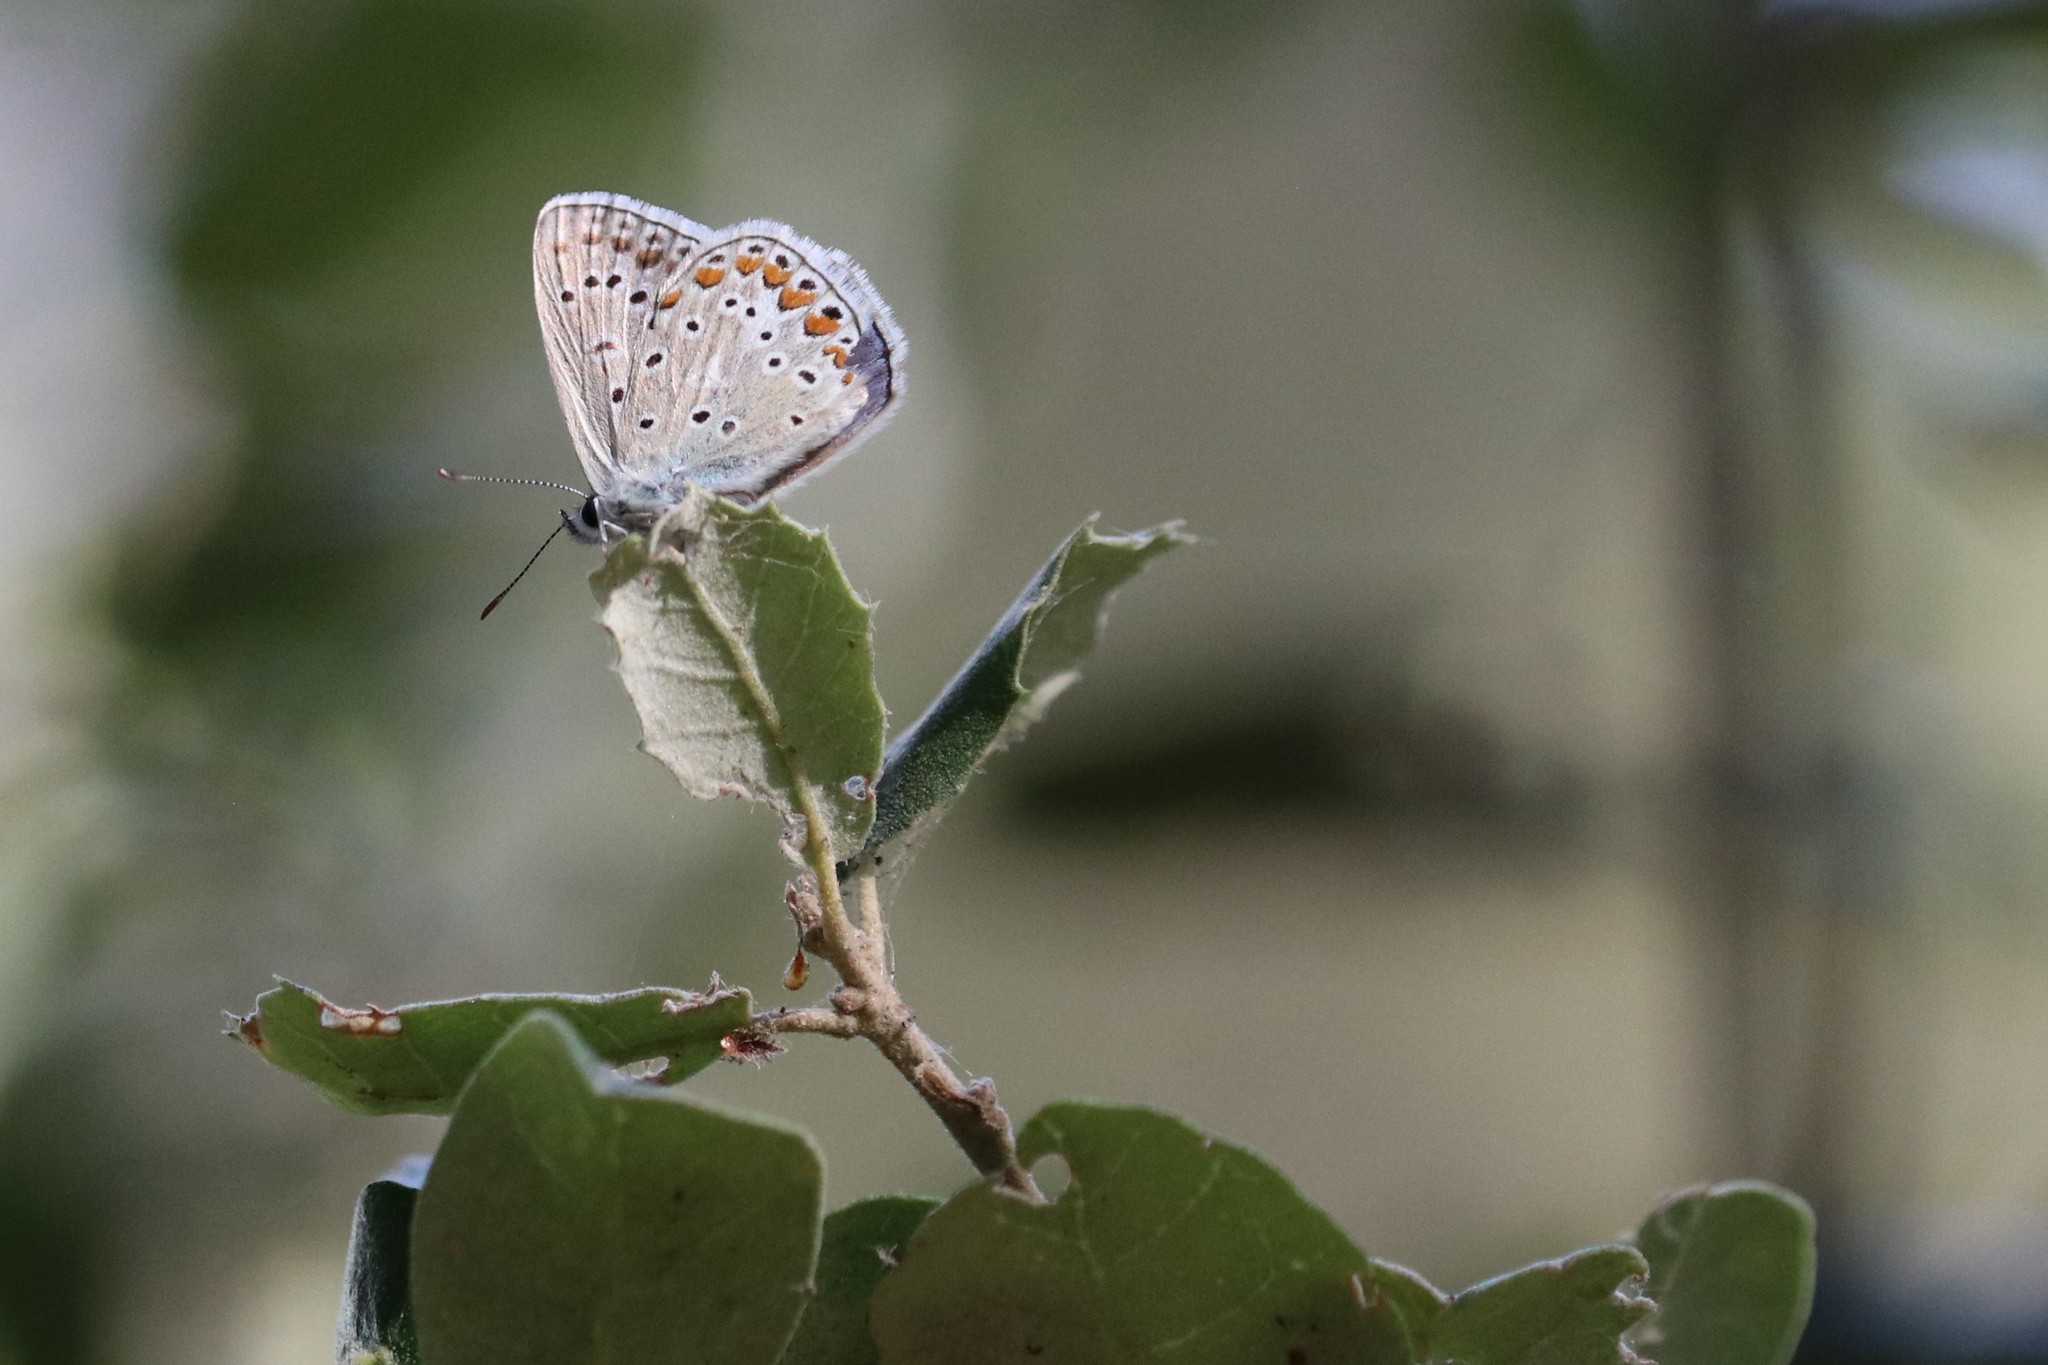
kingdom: Animalia
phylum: Arthropoda
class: Insecta
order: Lepidoptera
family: Lycaenidae
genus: Polyommatus
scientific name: Polyommatus icarus
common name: Common blue
